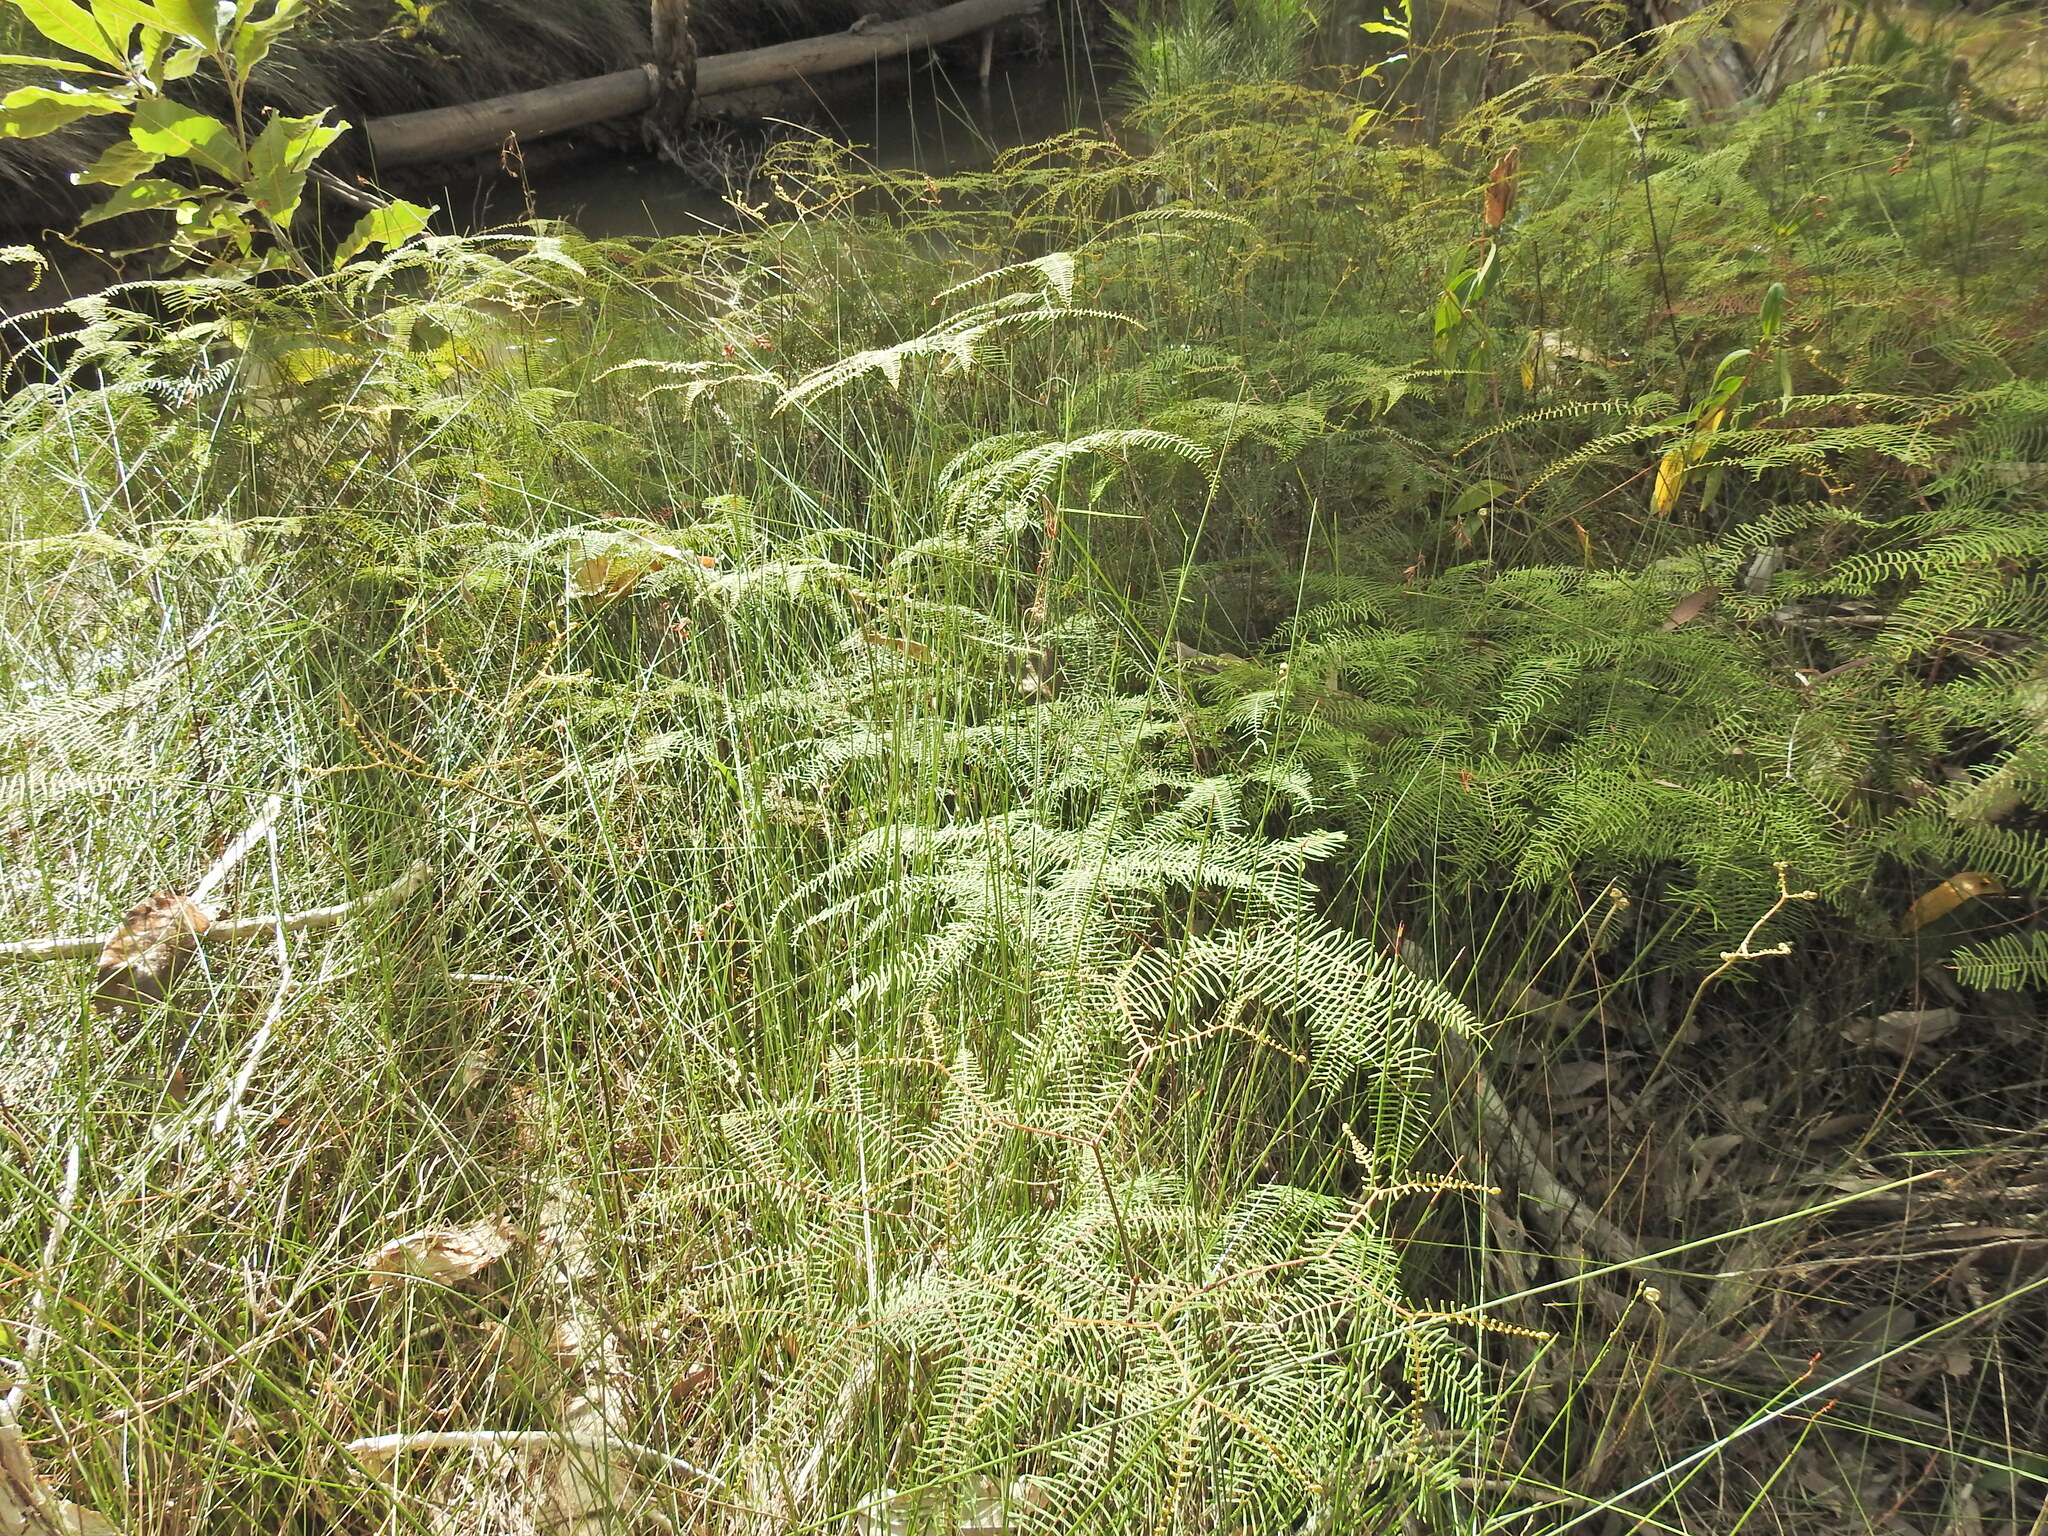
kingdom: Plantae
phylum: Tracheophyta
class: Polypodiopsida
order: Gleicheniales
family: Gleicheniaceae
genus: Gleichenia
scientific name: Gleichenia dicarpa
